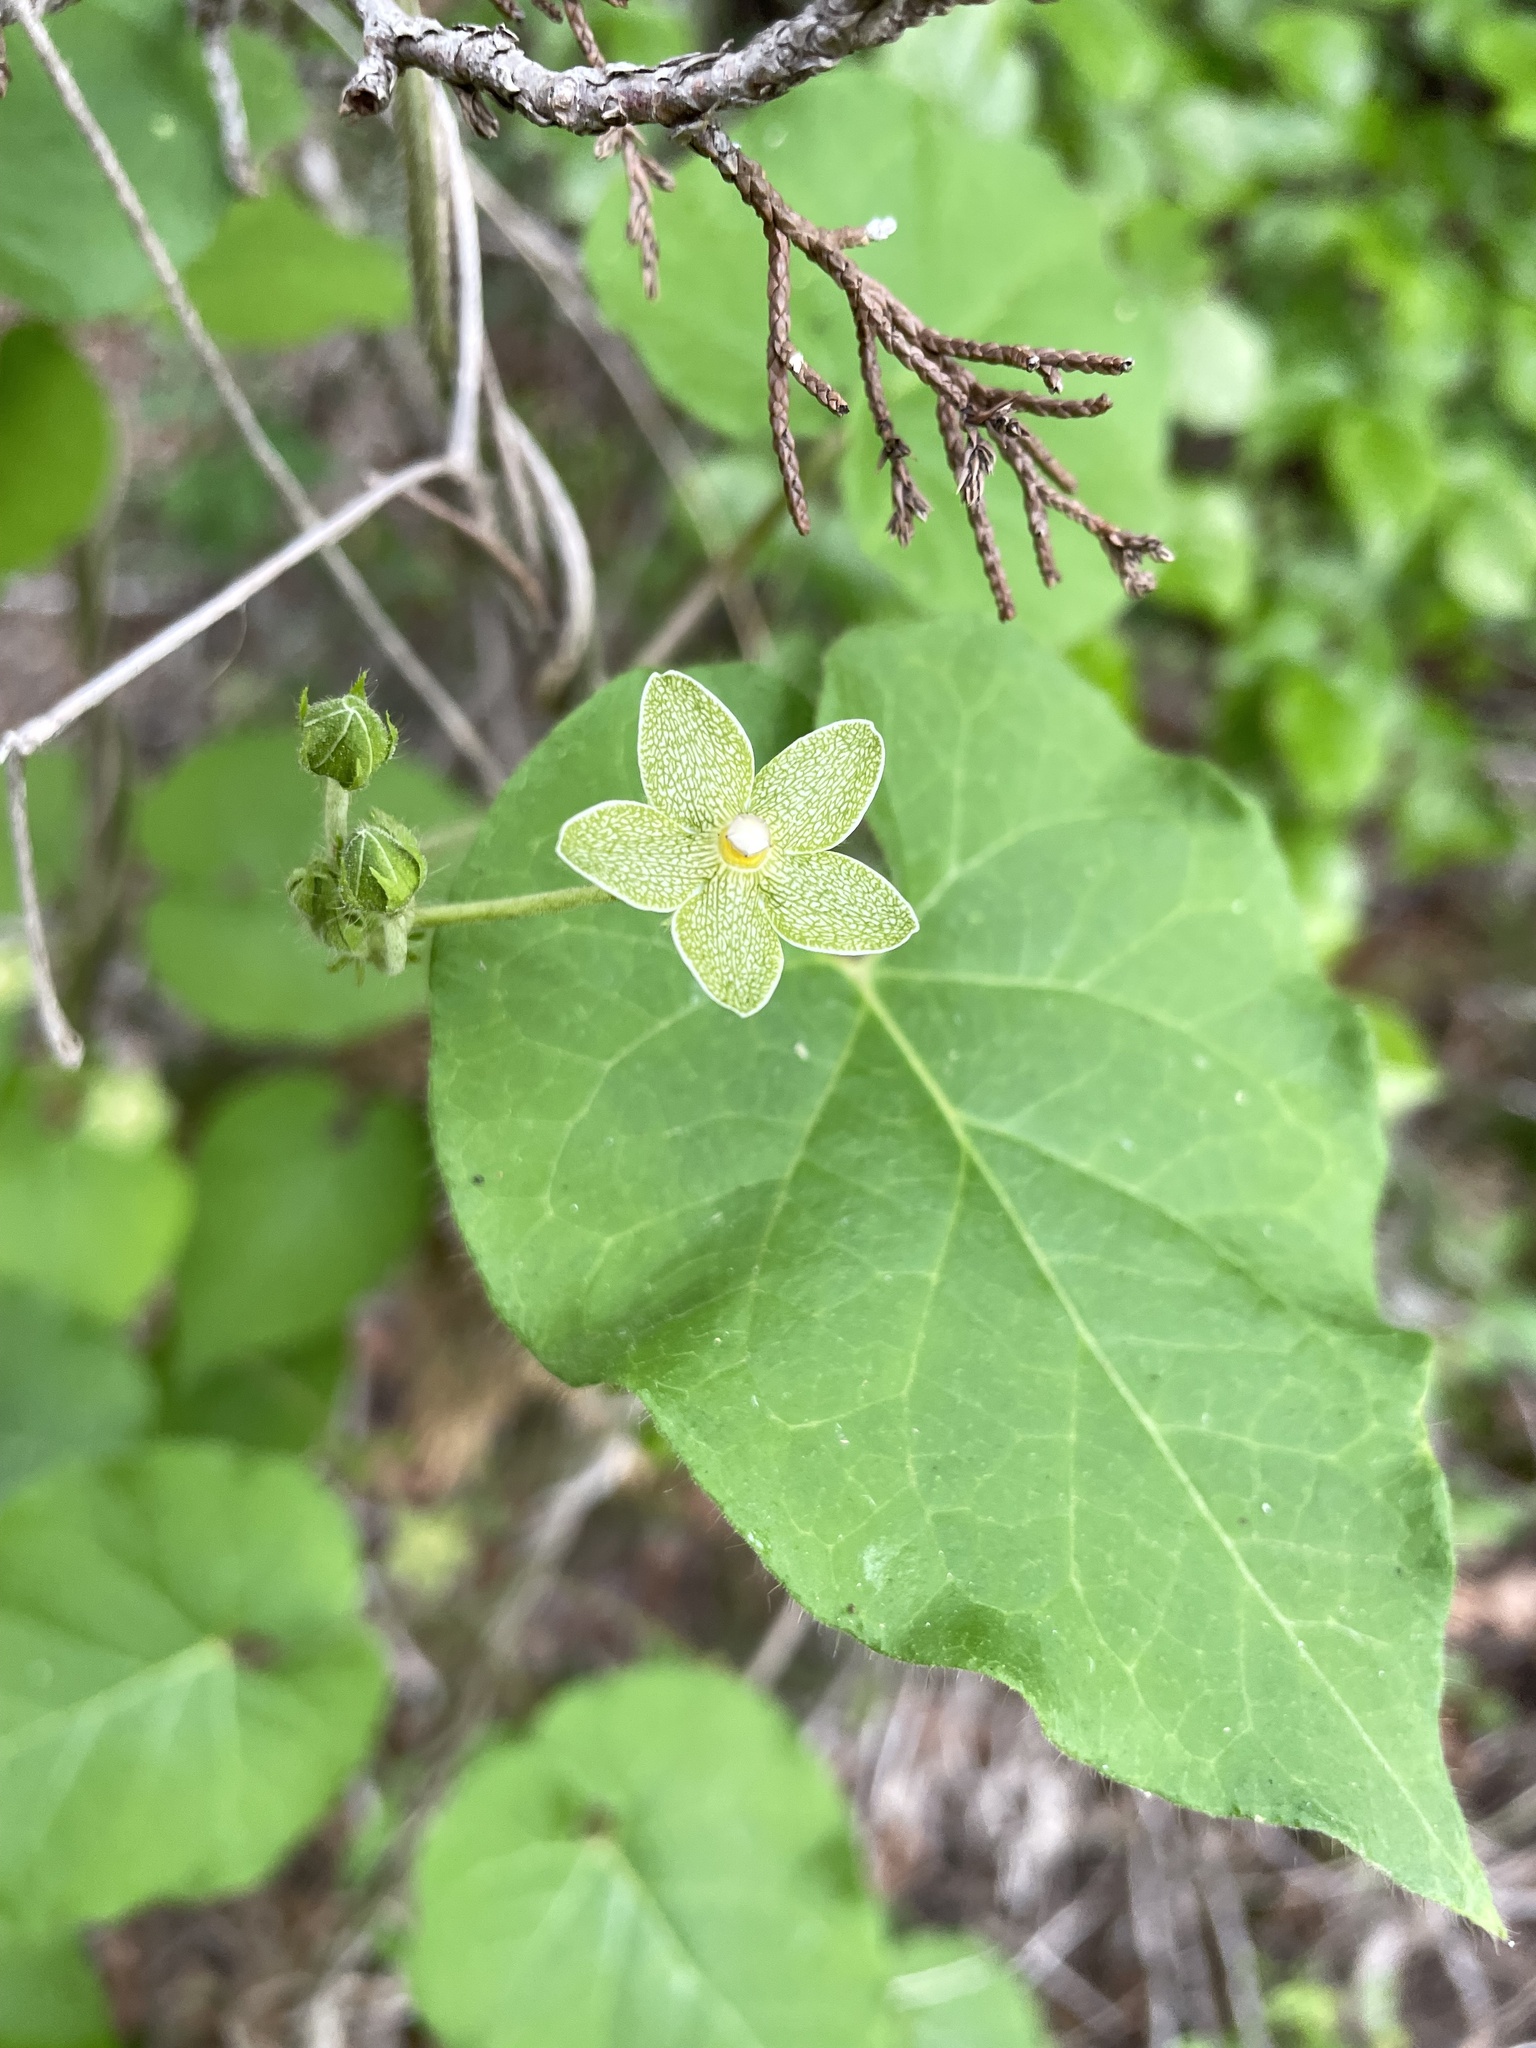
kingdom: Plantae
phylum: Tracheophyta
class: Magnoliopsida
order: Gentianales
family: Apocynaceae
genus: Dictyanthus
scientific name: Dictyanthus reticulatus
